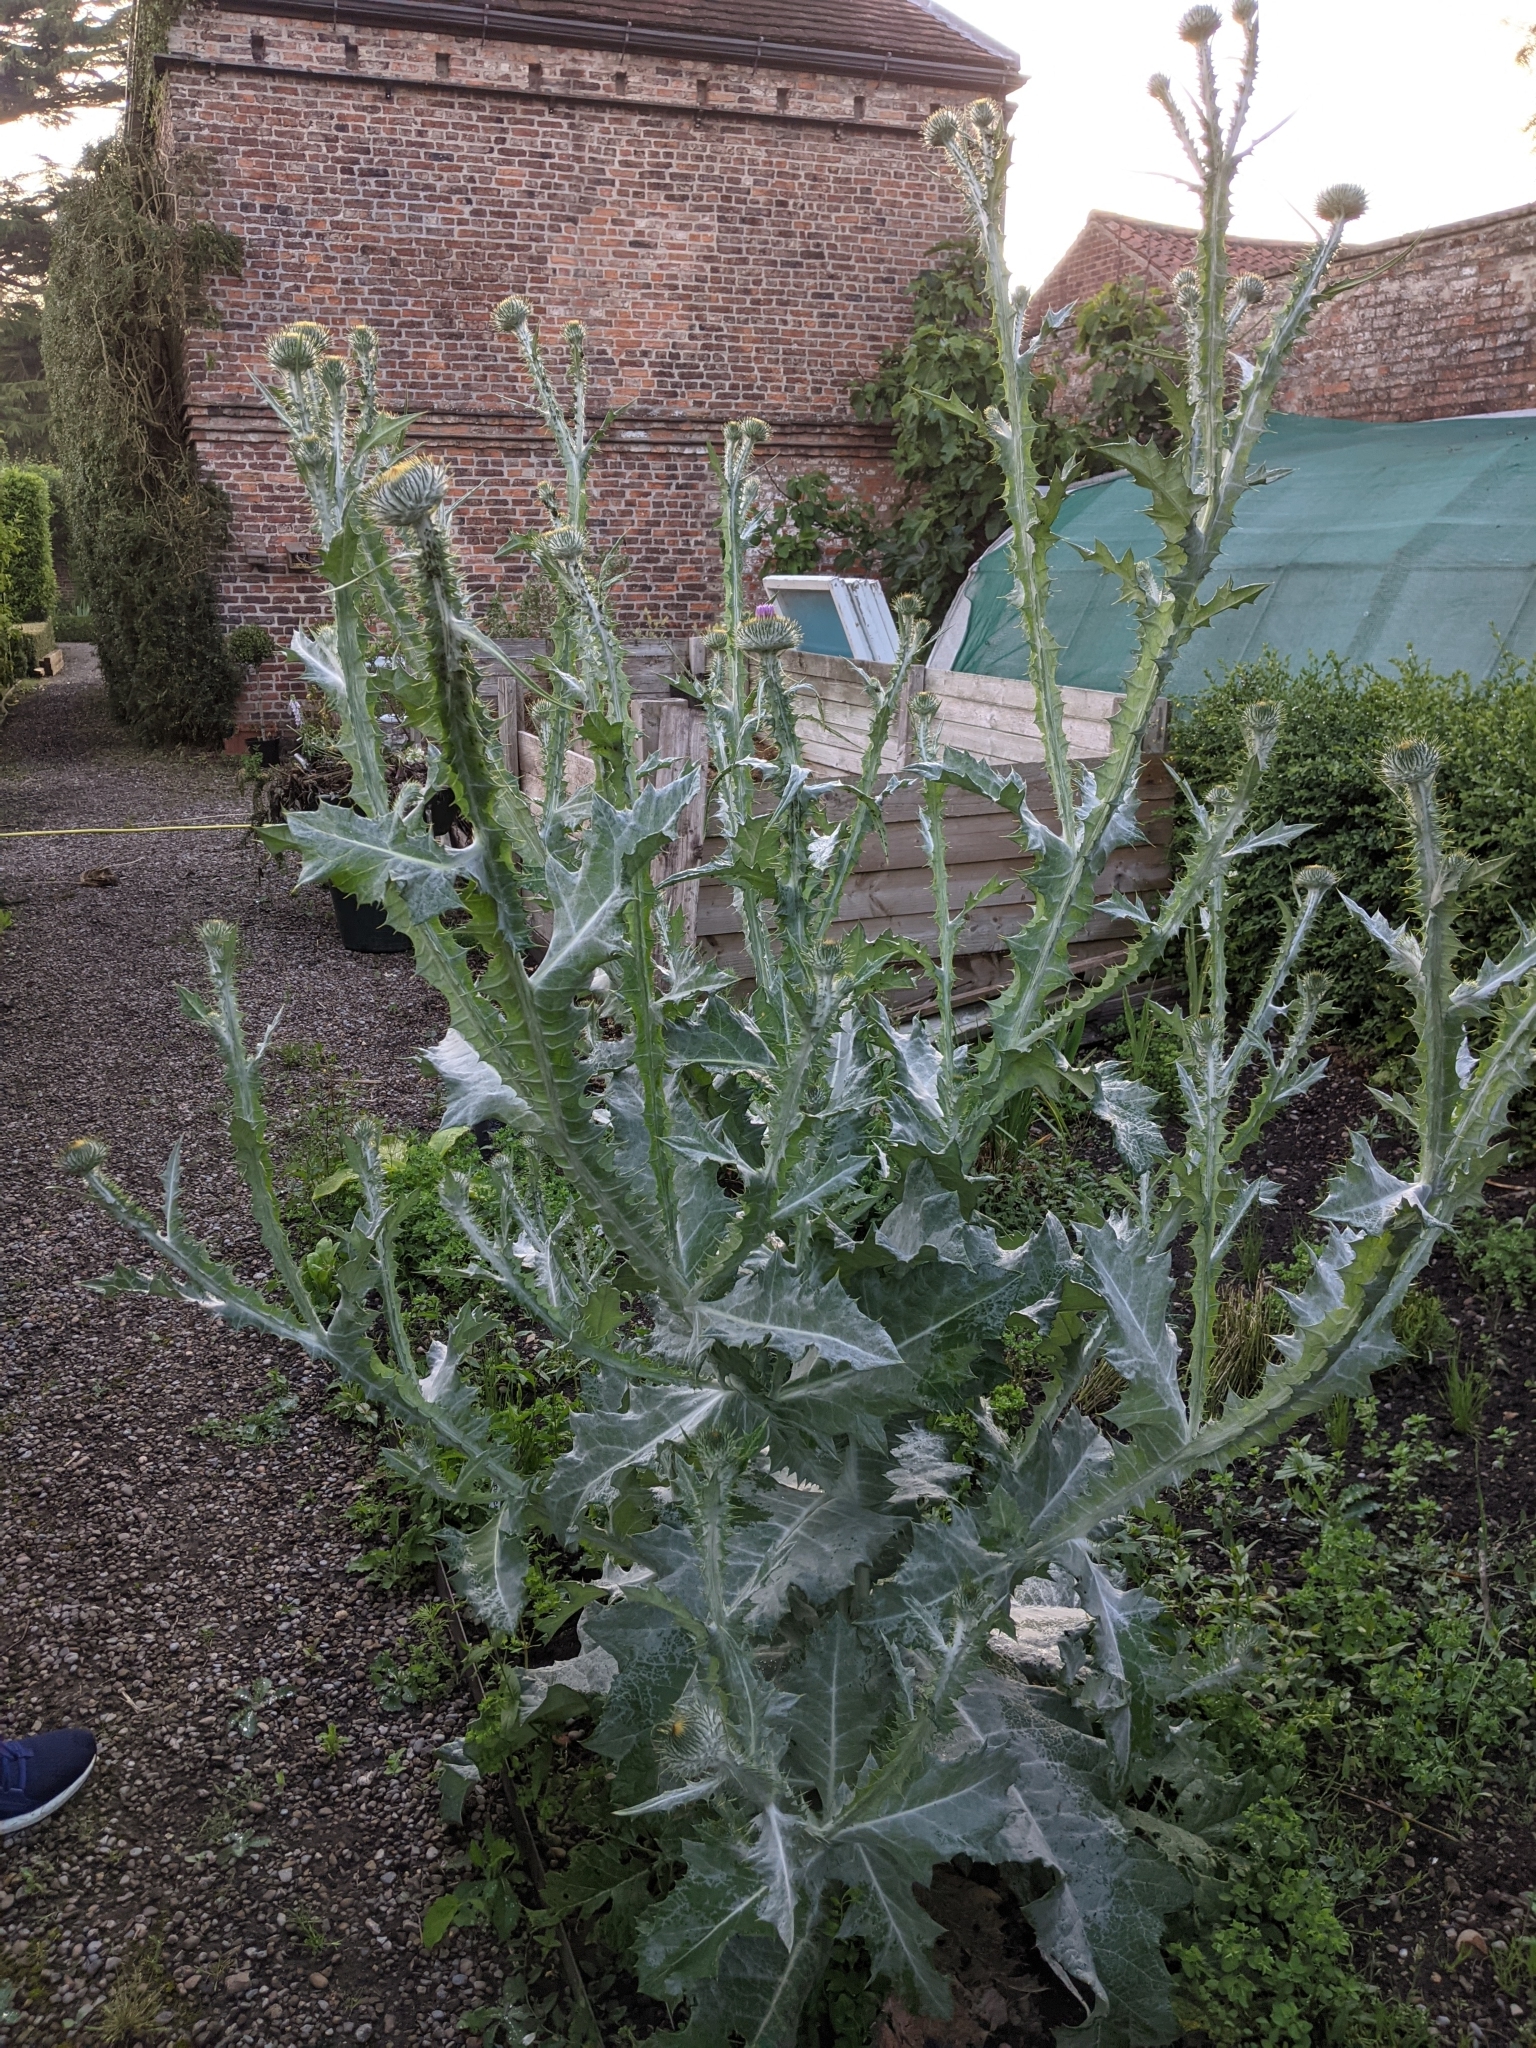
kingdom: Plantae
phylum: Tracheophyta
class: Magnoliopsida
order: Asterales
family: Asteraceae
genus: Onopordum
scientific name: Onopordum acanthium
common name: Scotch thistle
